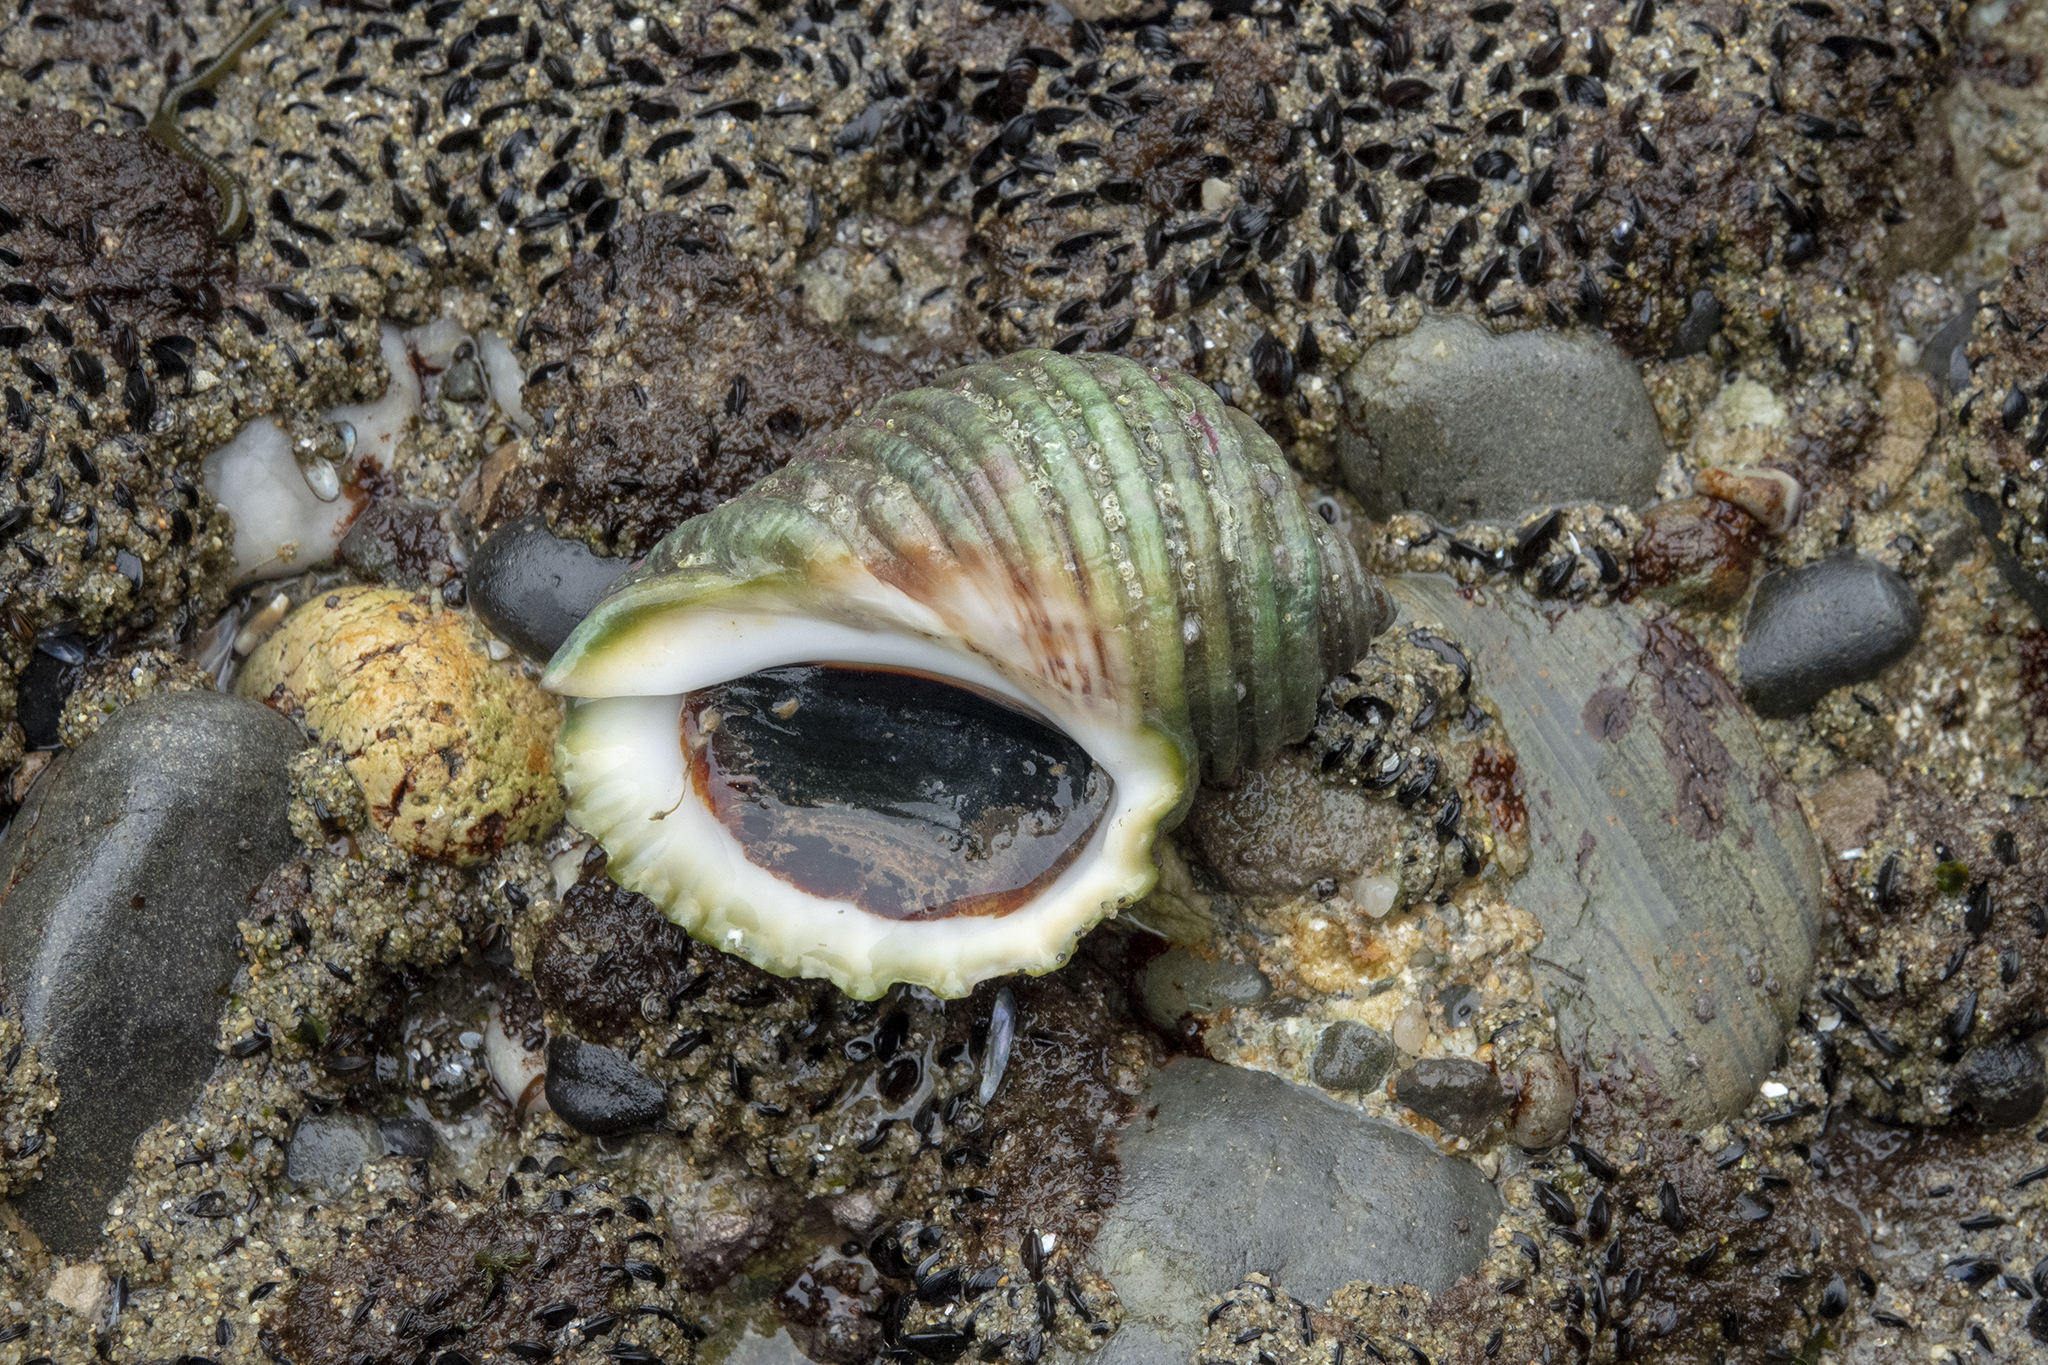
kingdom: Animalia
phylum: Mollusca
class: Gastropoda
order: Neogastropoda
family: Muricidae
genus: Dicathais
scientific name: Dicathais orbita
